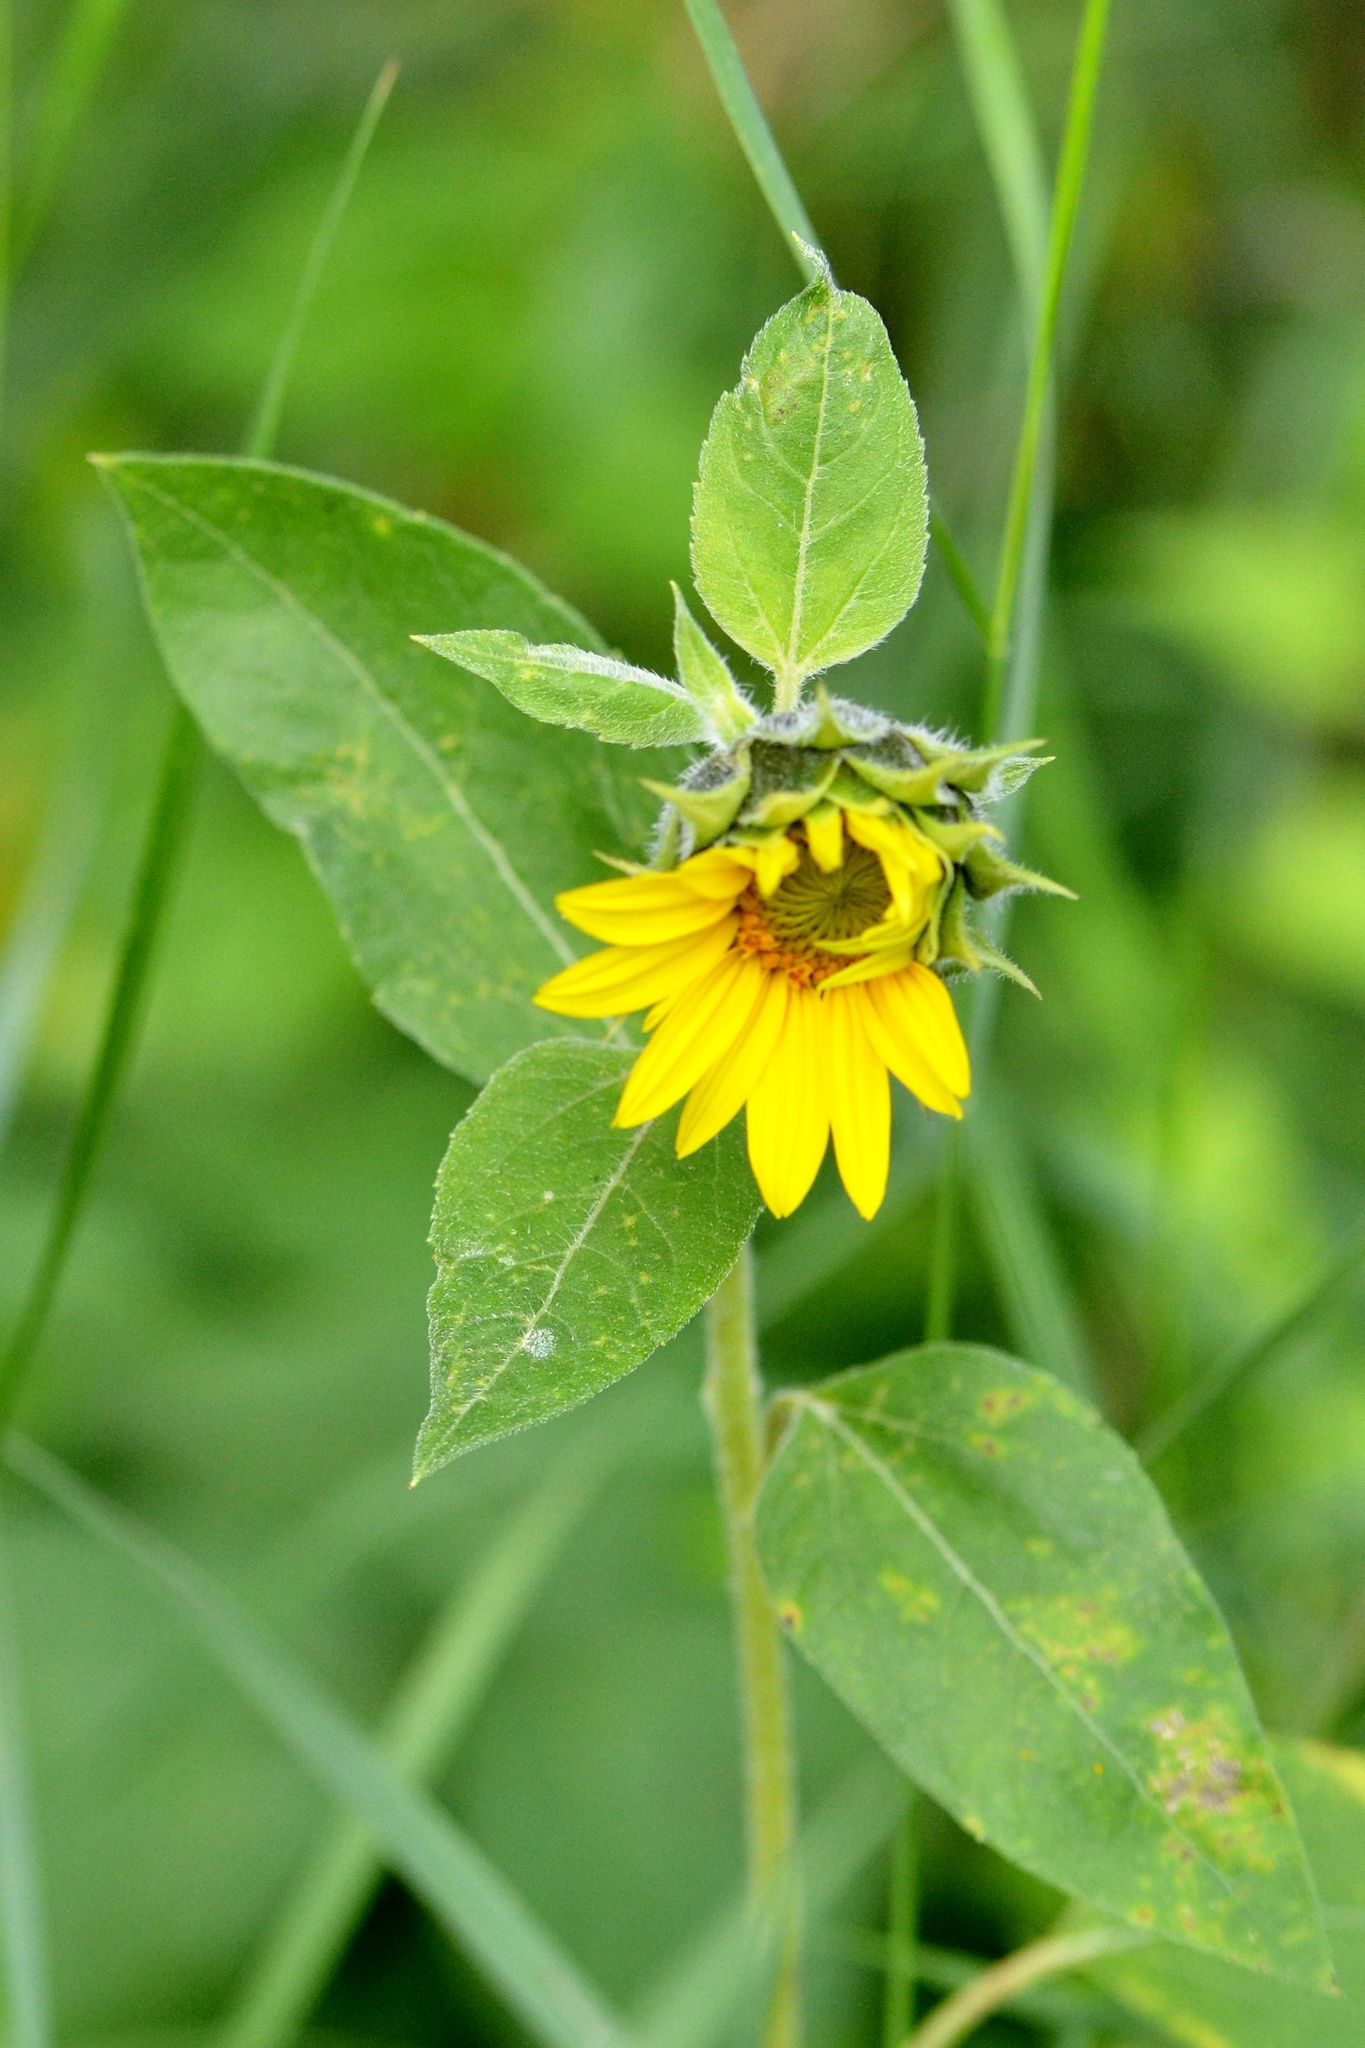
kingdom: Plantae
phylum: Tracheophyta
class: Magnoliopsida
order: Asterales
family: Asteraceae
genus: Helianthus
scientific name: Helianthus annuus
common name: Sunflower
